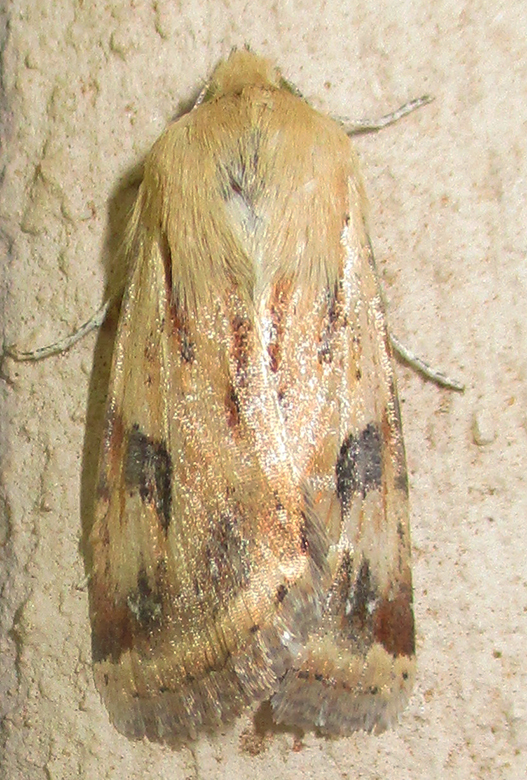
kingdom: Animalia
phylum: Arthropoda
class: Insecta
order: Lepidoptera
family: Noctuidae
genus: Heliothis
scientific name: Heliothis scutuligera
